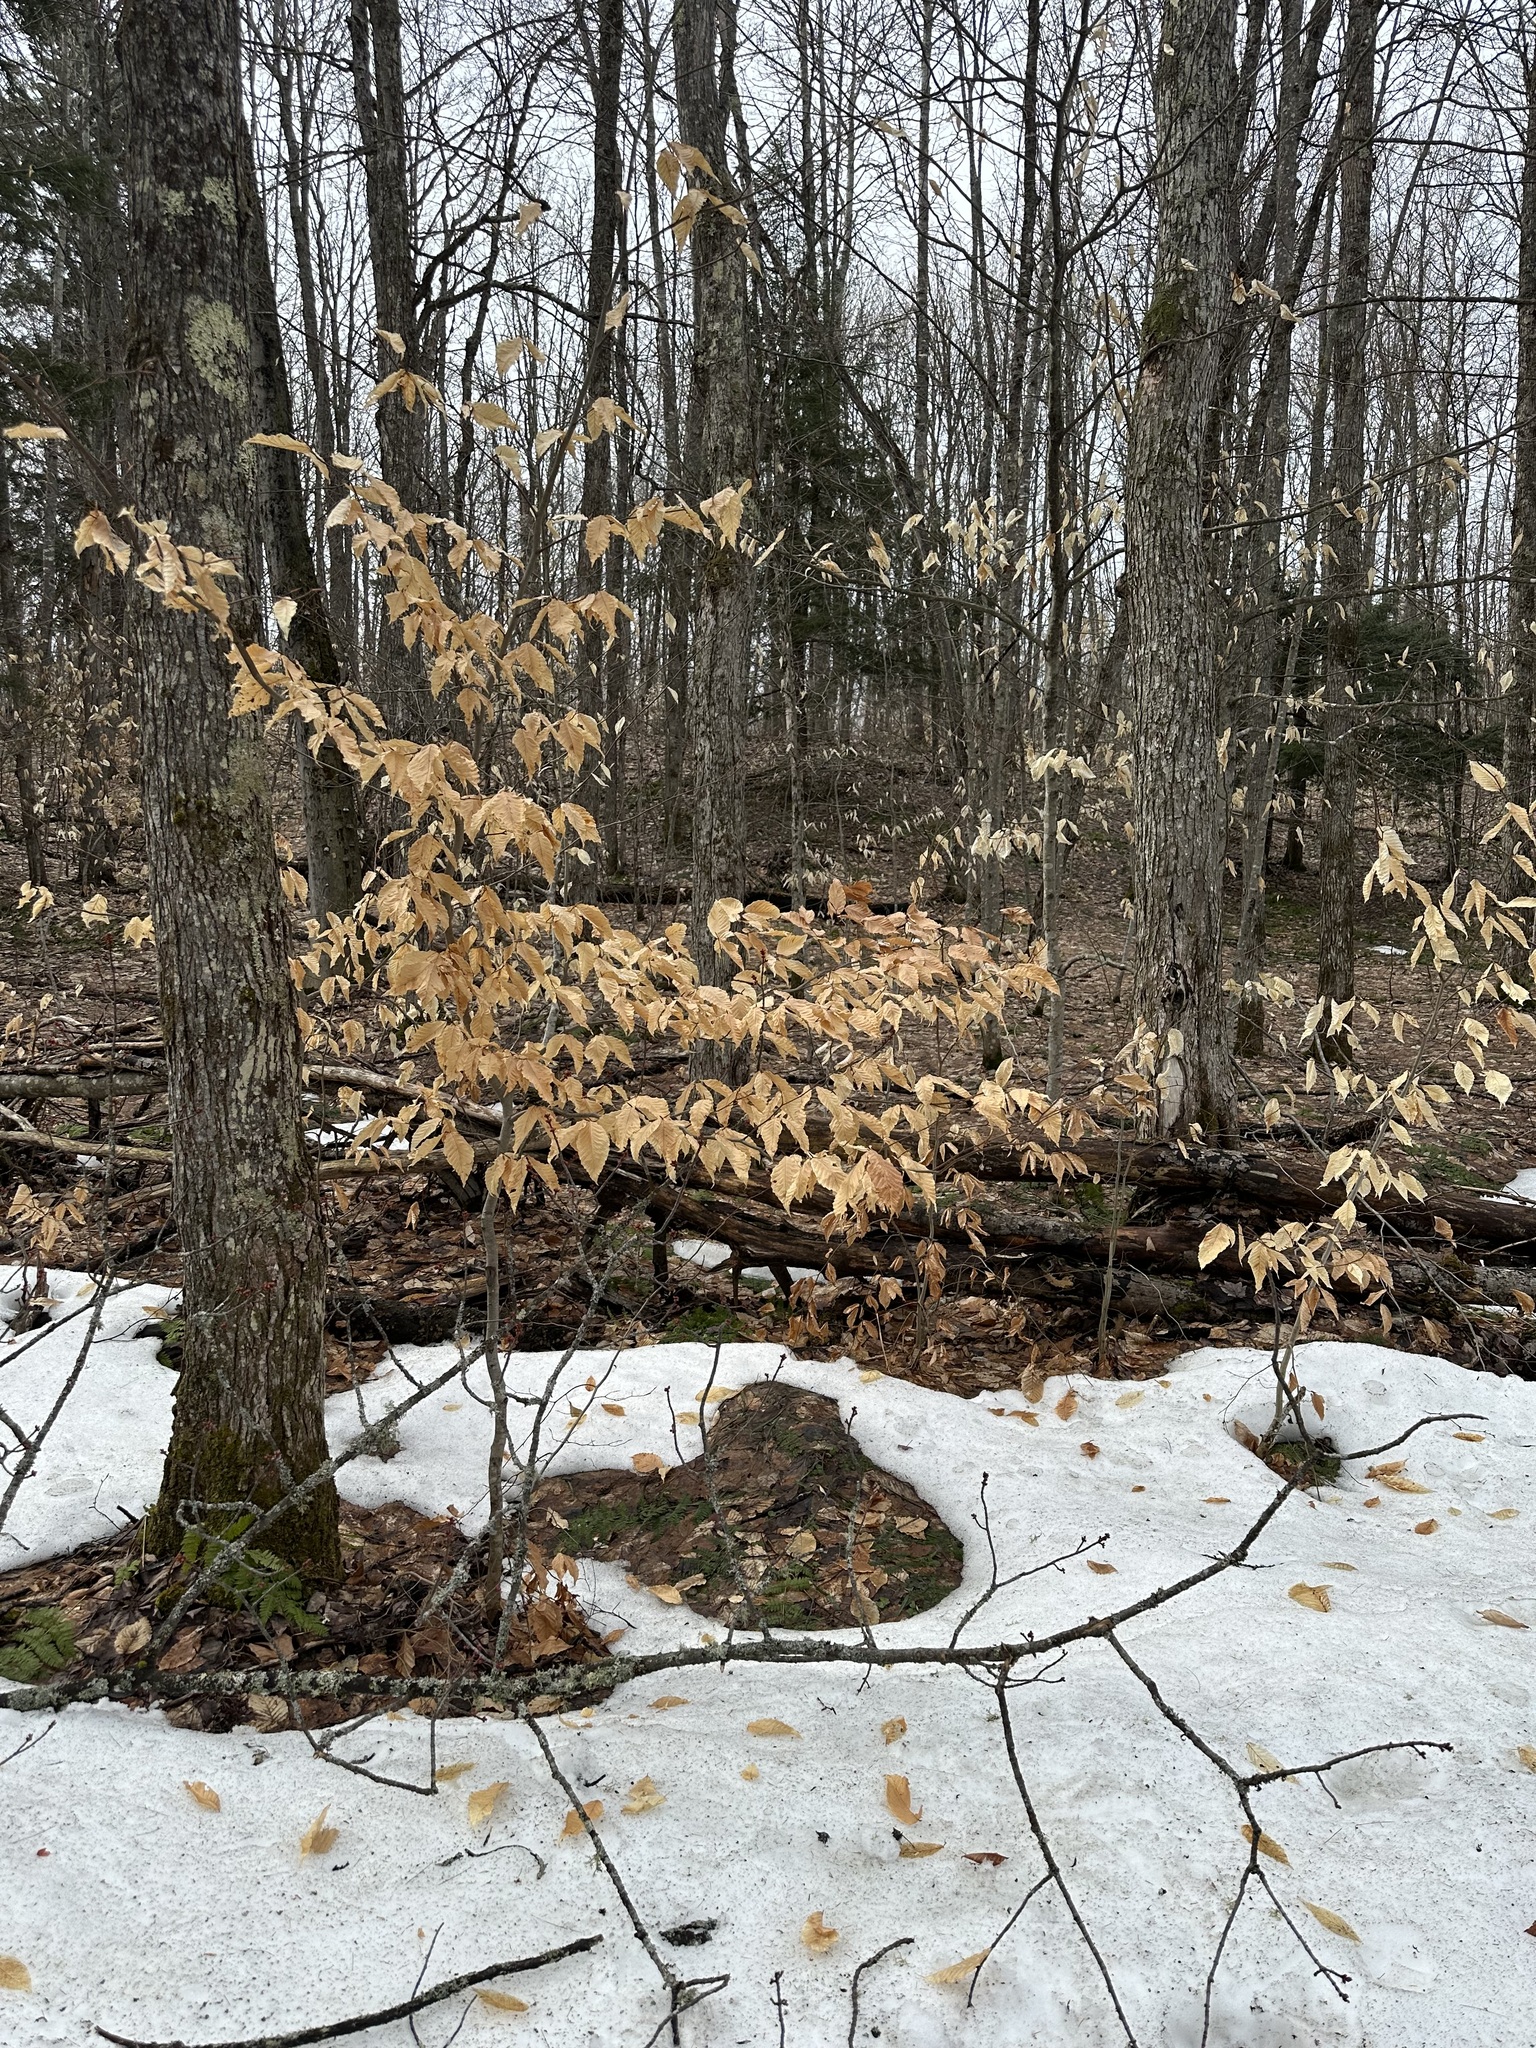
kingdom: Plantae
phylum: Tracheophyta
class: Magnoliopsida
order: Fagales
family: Fagaceae
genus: Fagus
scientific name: Fagus grandifolia
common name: American beech
